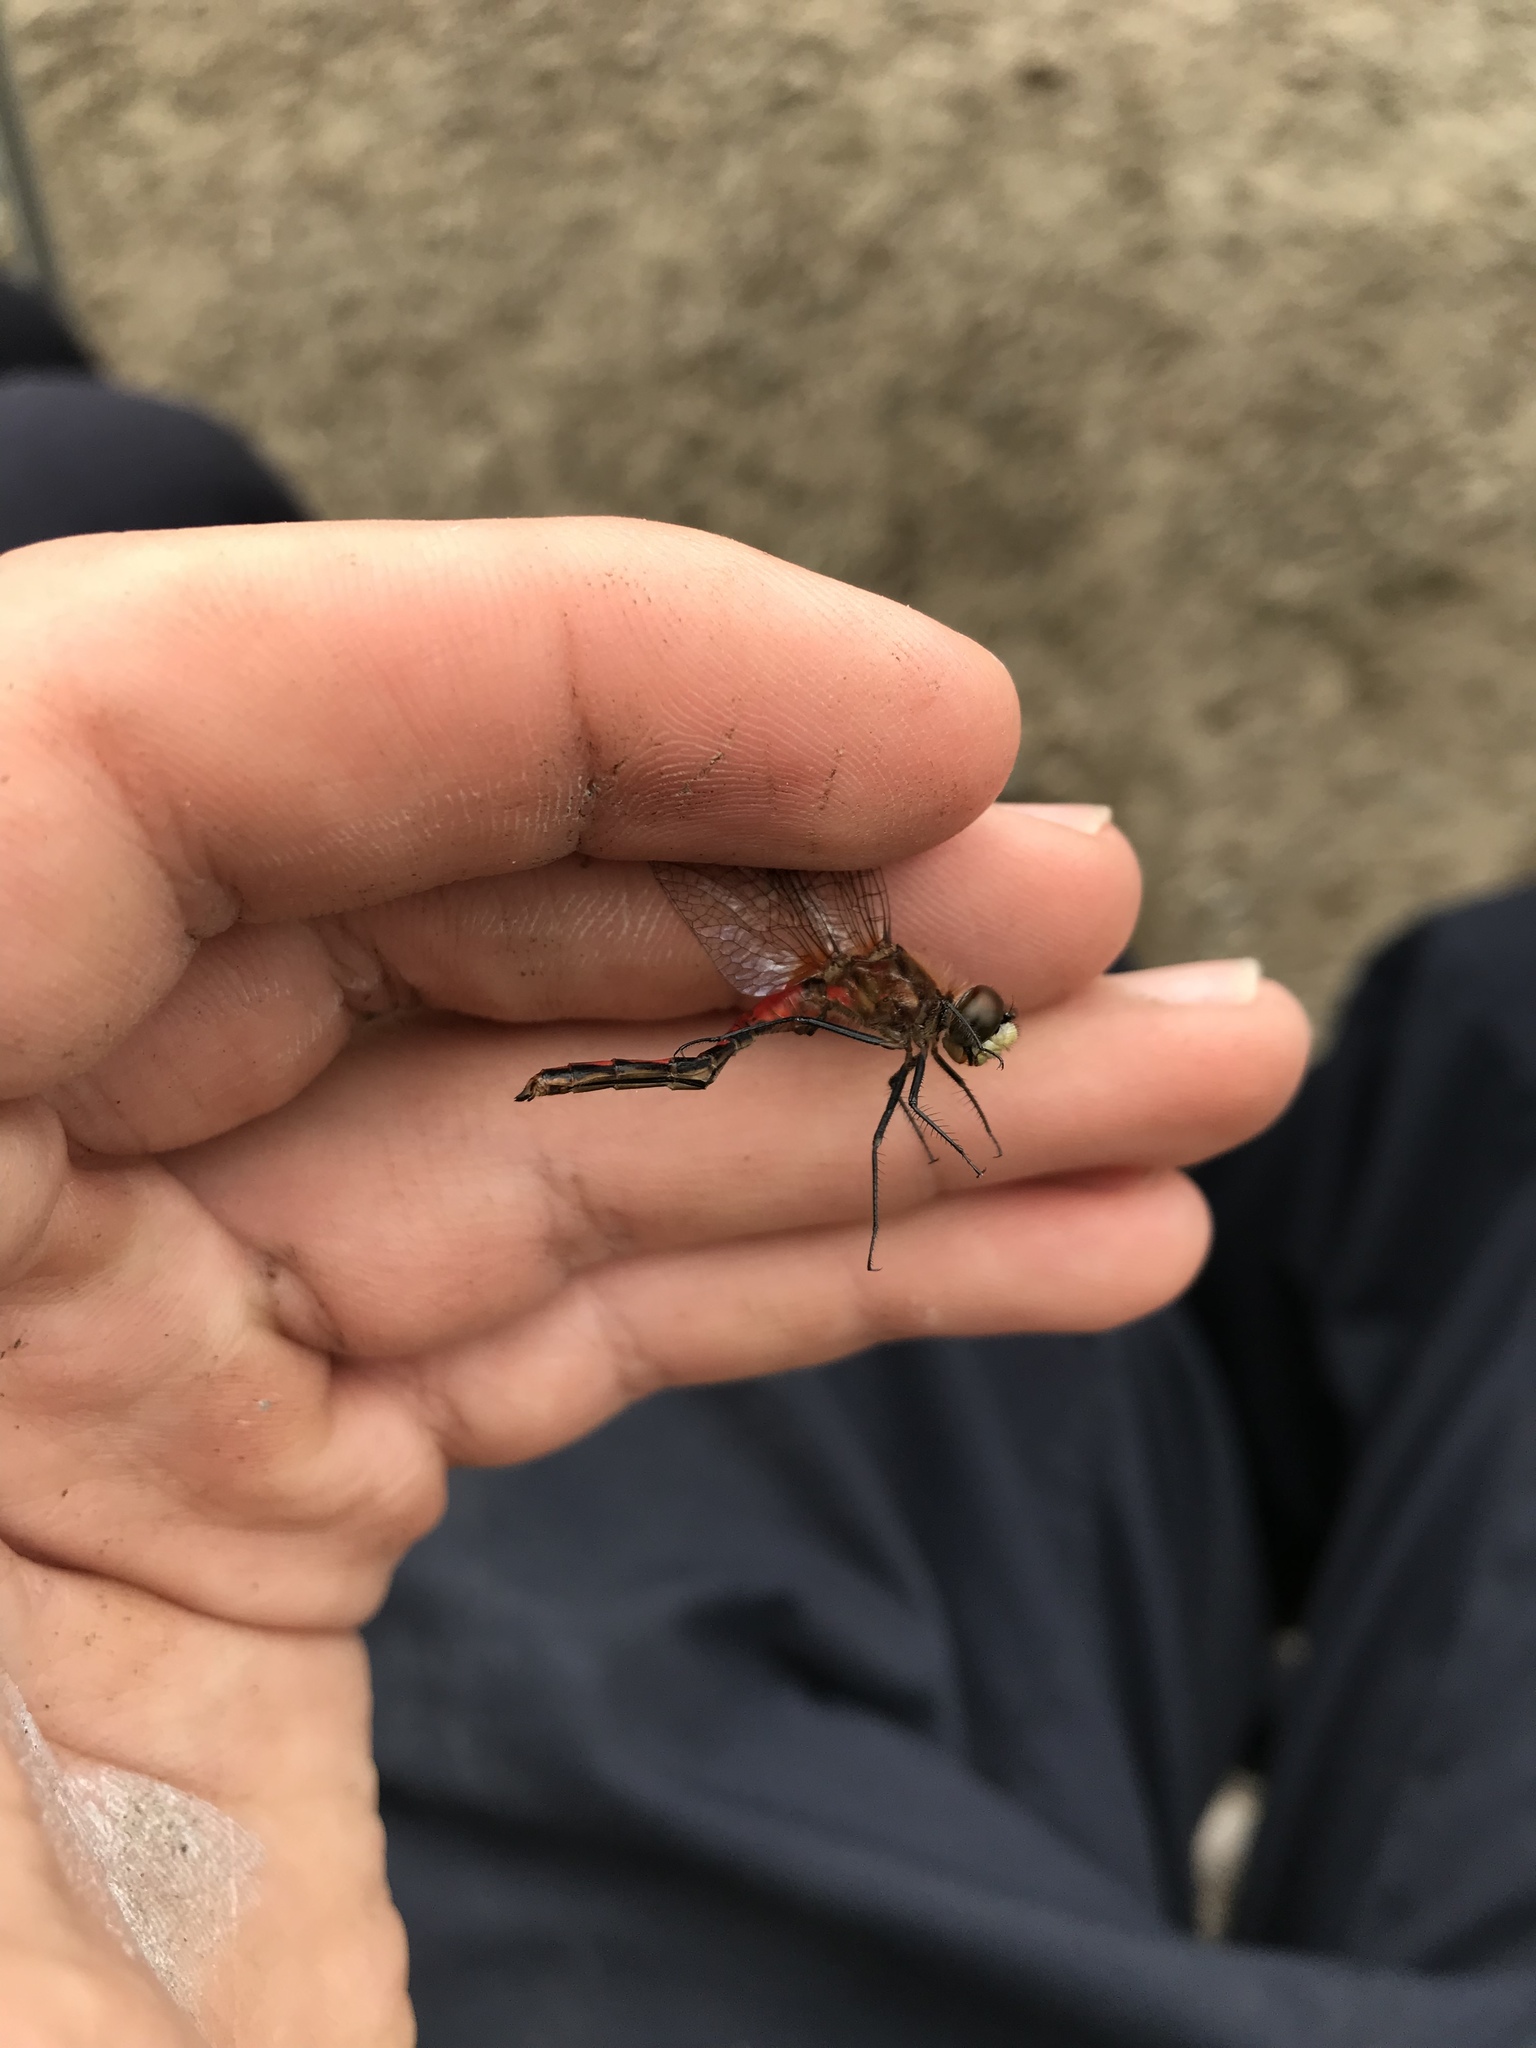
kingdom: Animalia
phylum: Arthropoda
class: Insecta
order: Odonata
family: Libellulidae
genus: Sympetrum
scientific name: Sympetrum obtrusum
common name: White-faced meadowhawk
